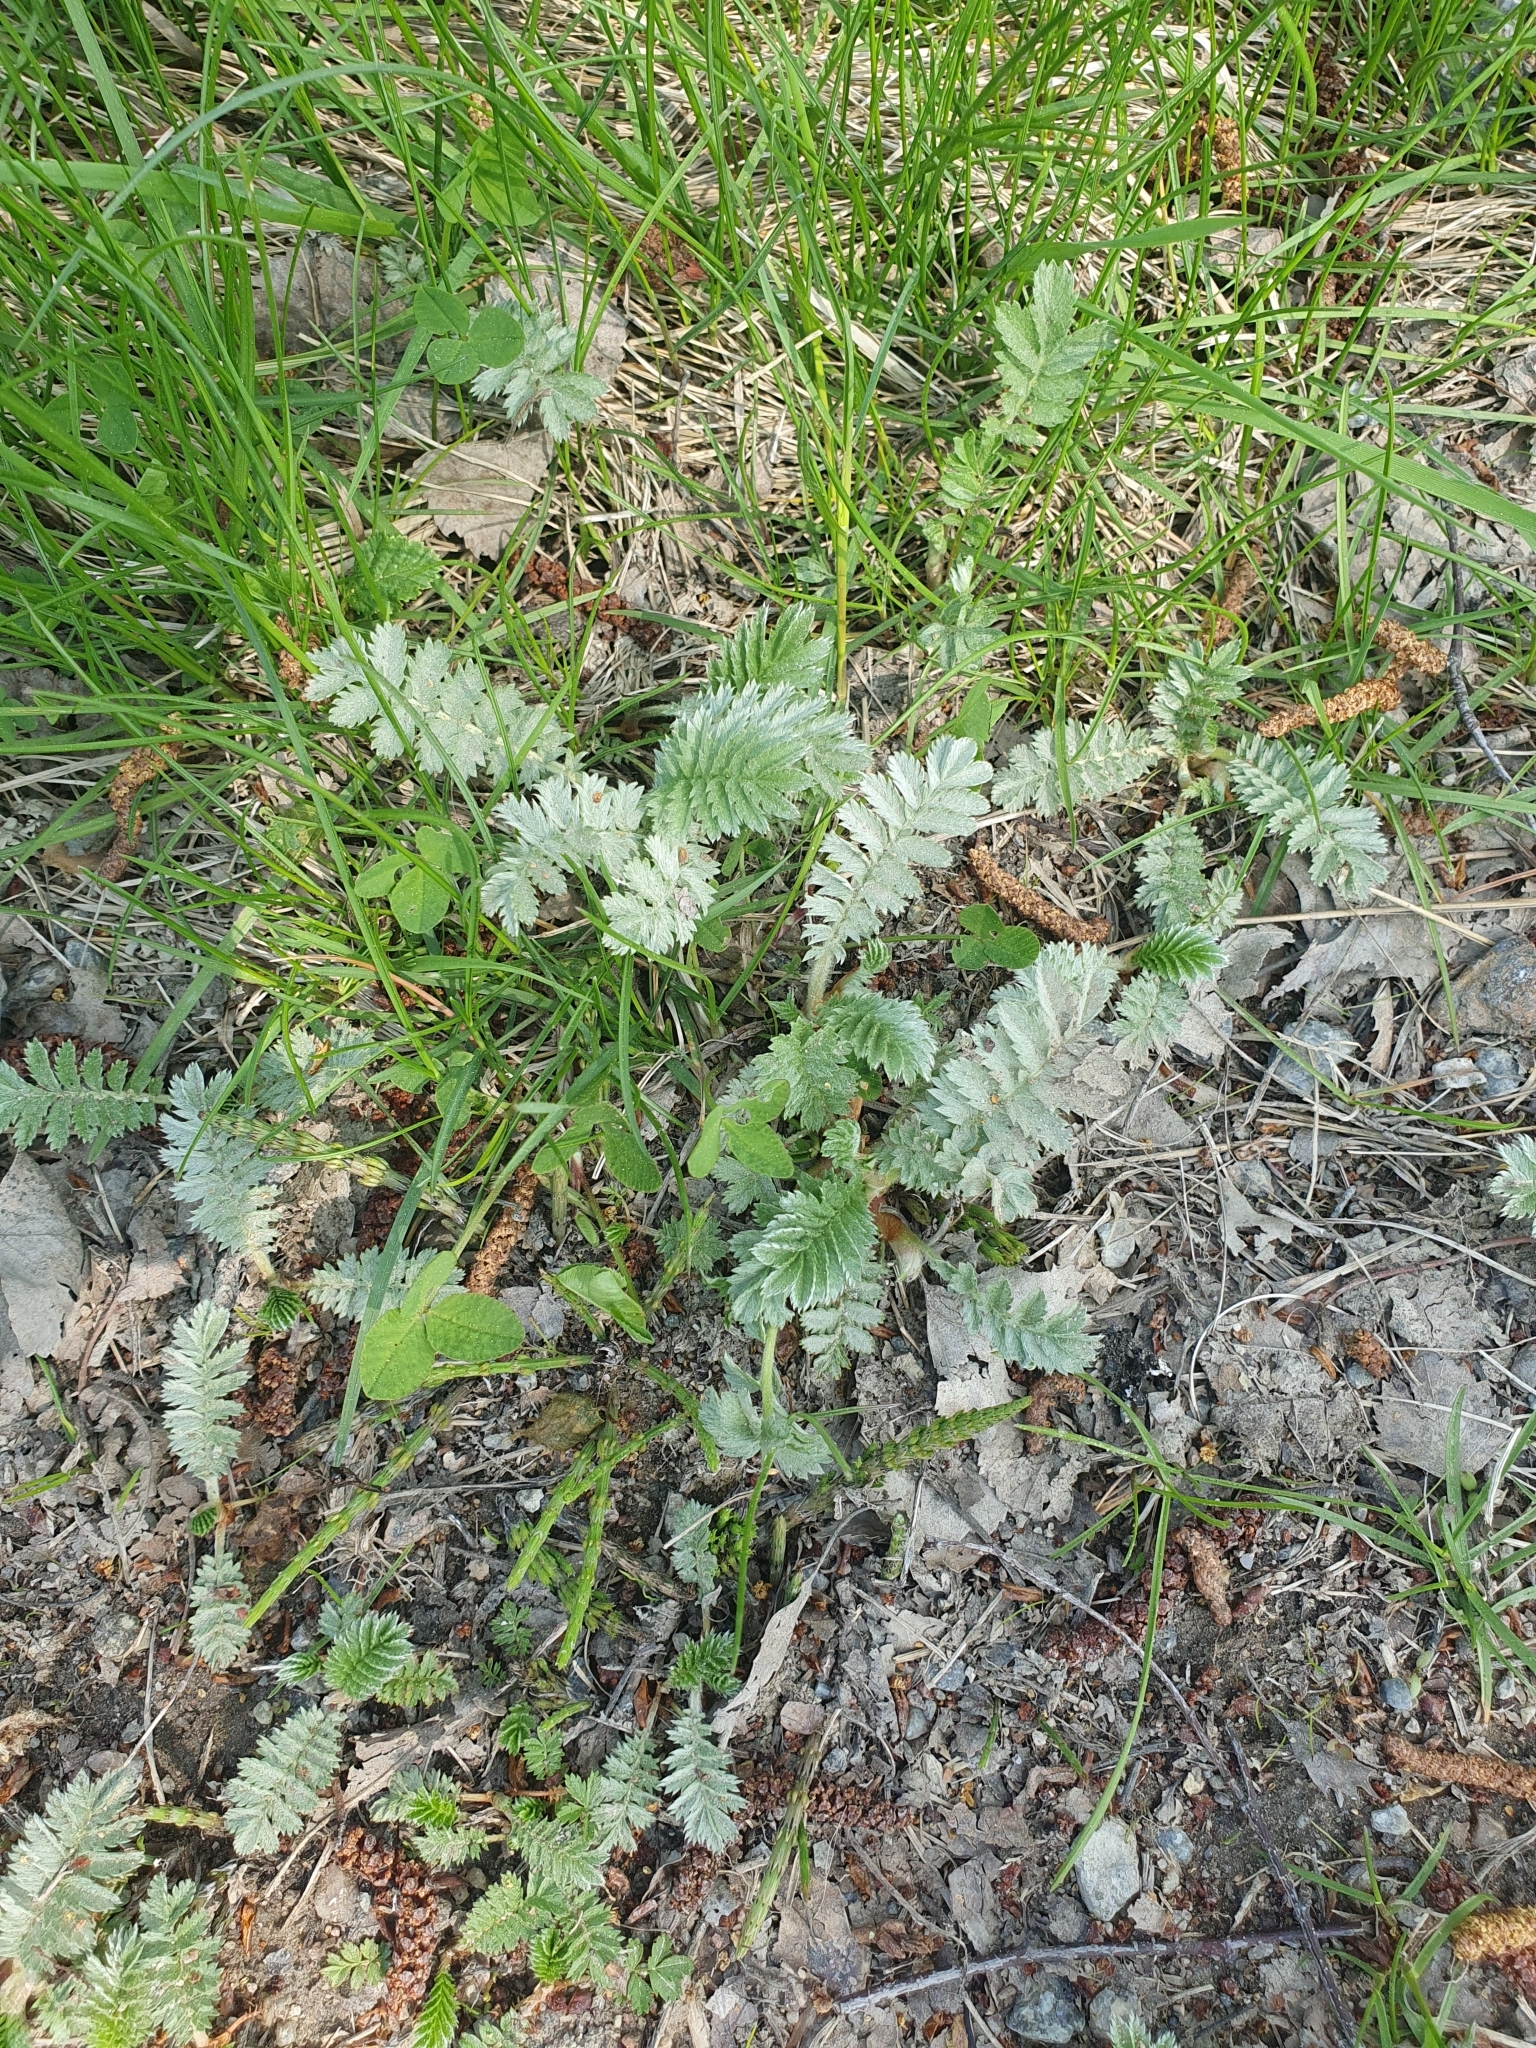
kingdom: Plantae
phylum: Tracheophyta
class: Magnoliopsida
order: Rosales
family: Rosaceae
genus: Argentina
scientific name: Argentina anserina
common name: Common silverweed
